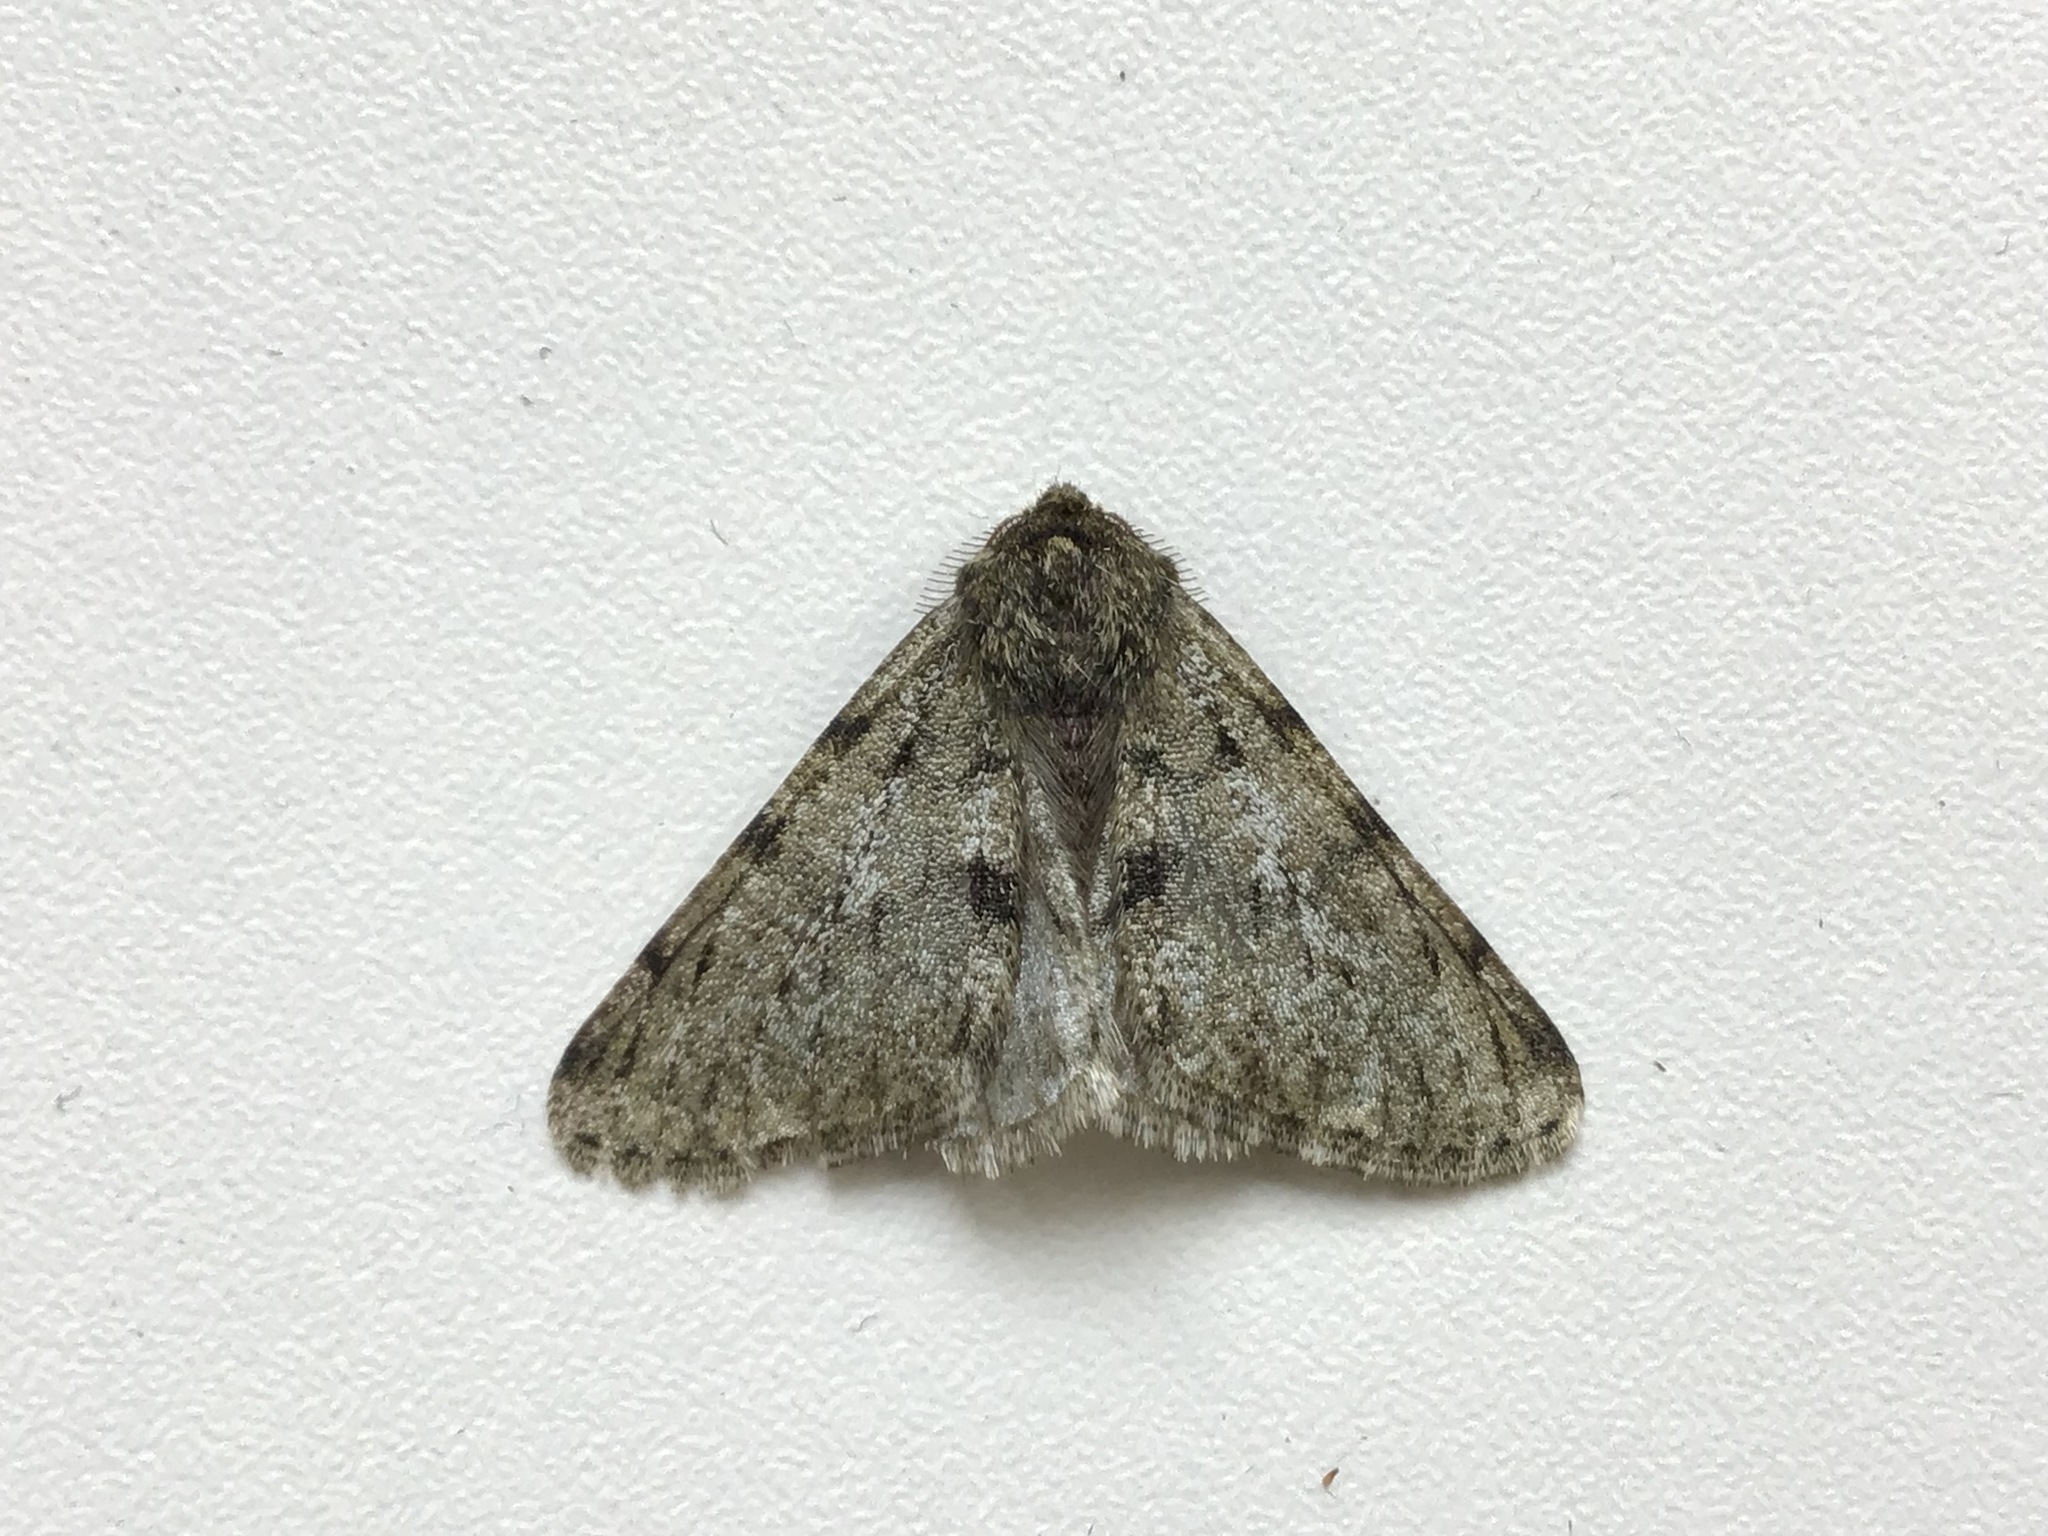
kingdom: Animalia
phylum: Arthropoda
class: Insecta
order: Lepidoptera
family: Geometridae
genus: Phigalia
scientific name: Phigalia pilosaria
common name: Pale brindled beauty
